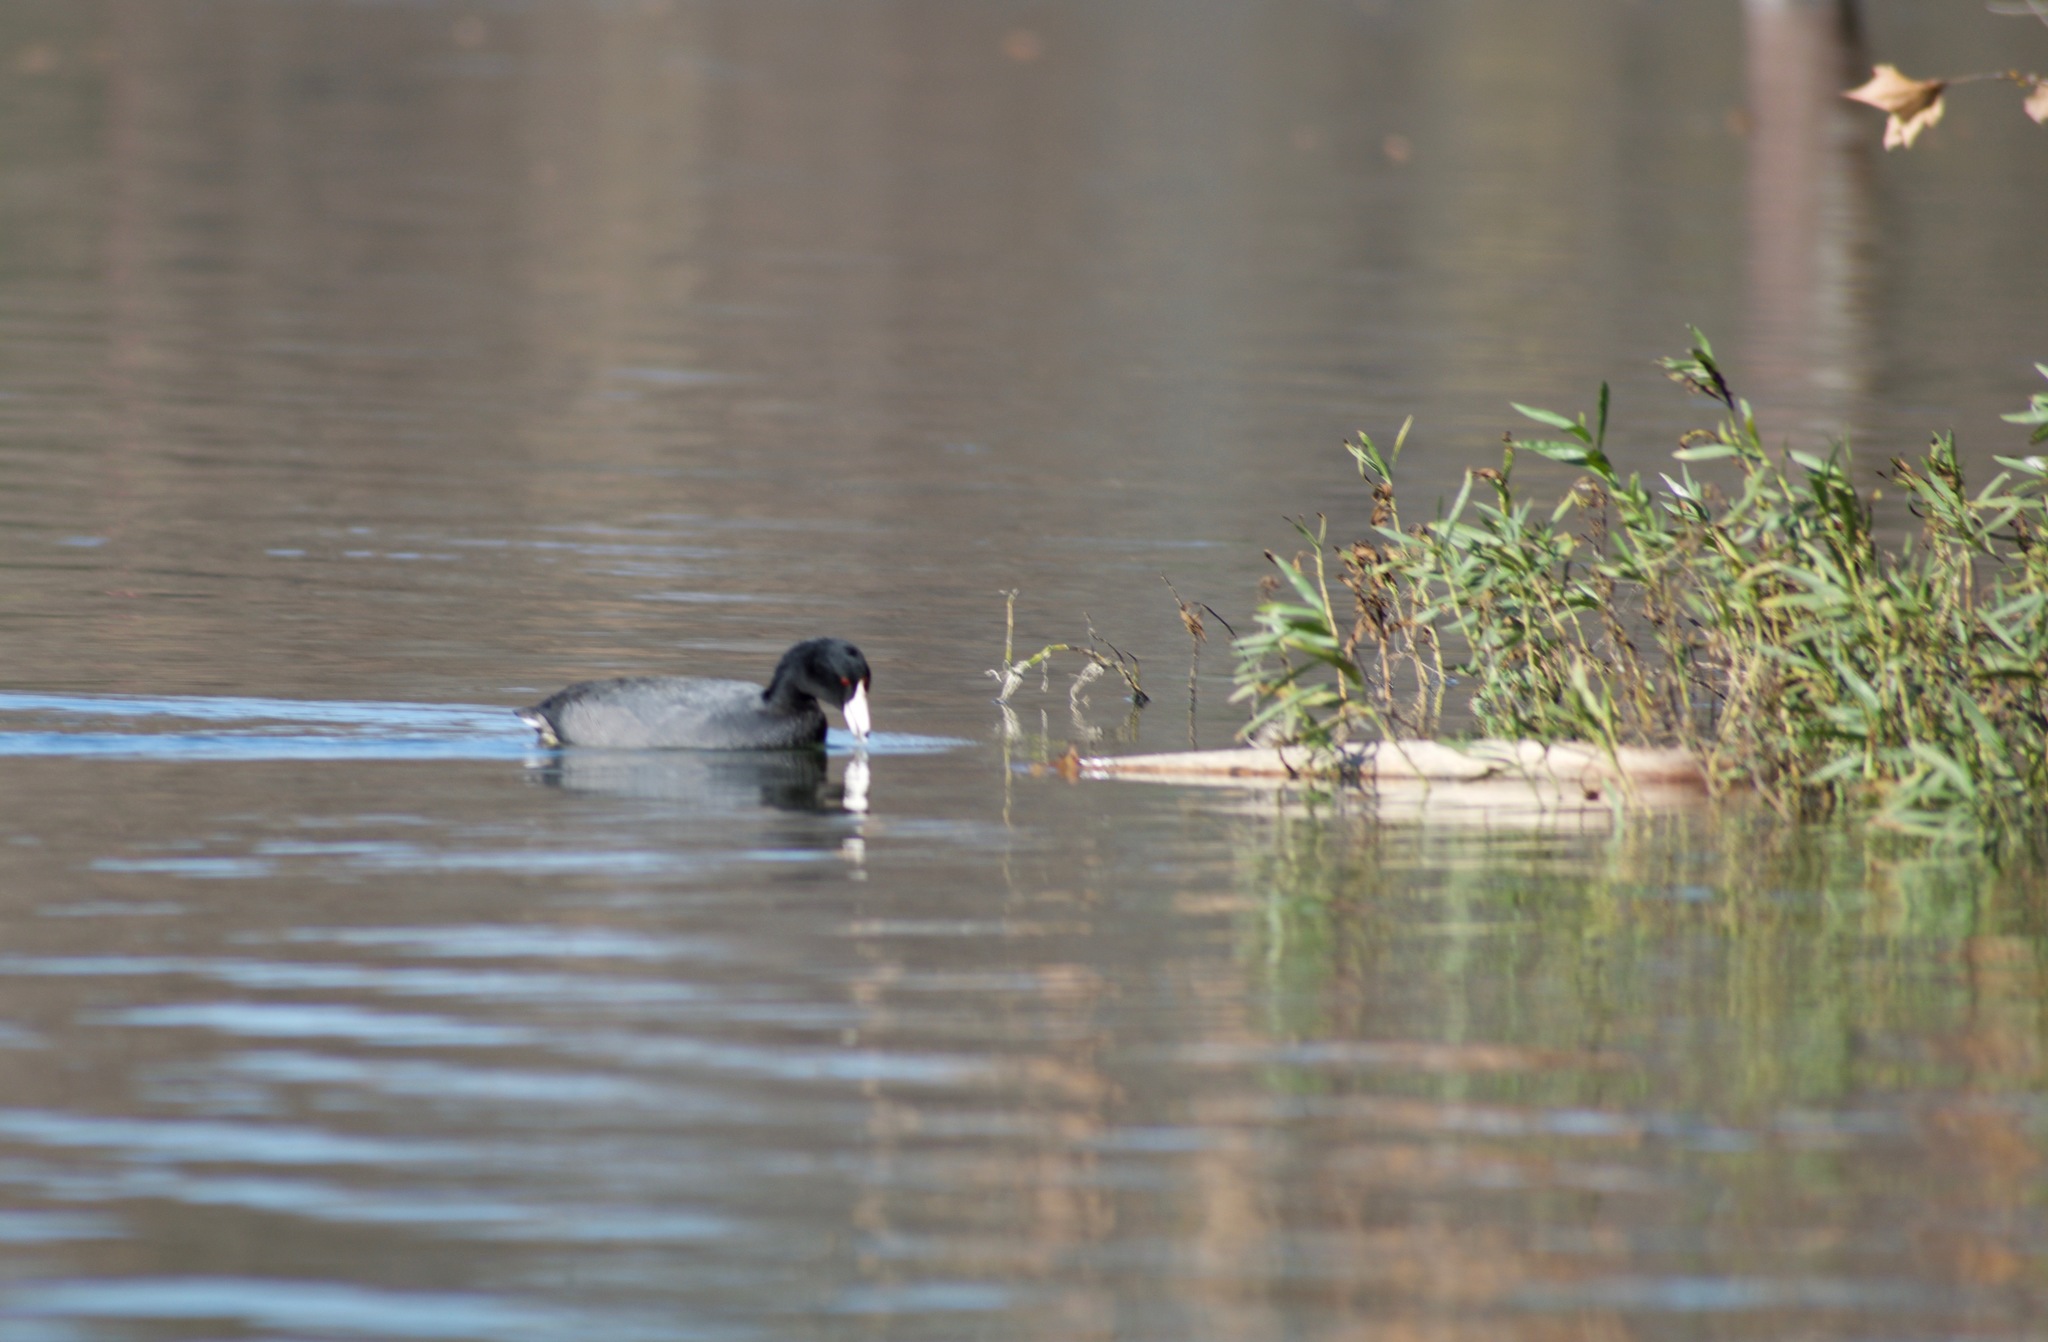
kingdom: Animalia
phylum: Chordata
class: Aves
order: Gruiformes
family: Rallidae
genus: Fulica
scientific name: Fulica americana
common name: American coot
